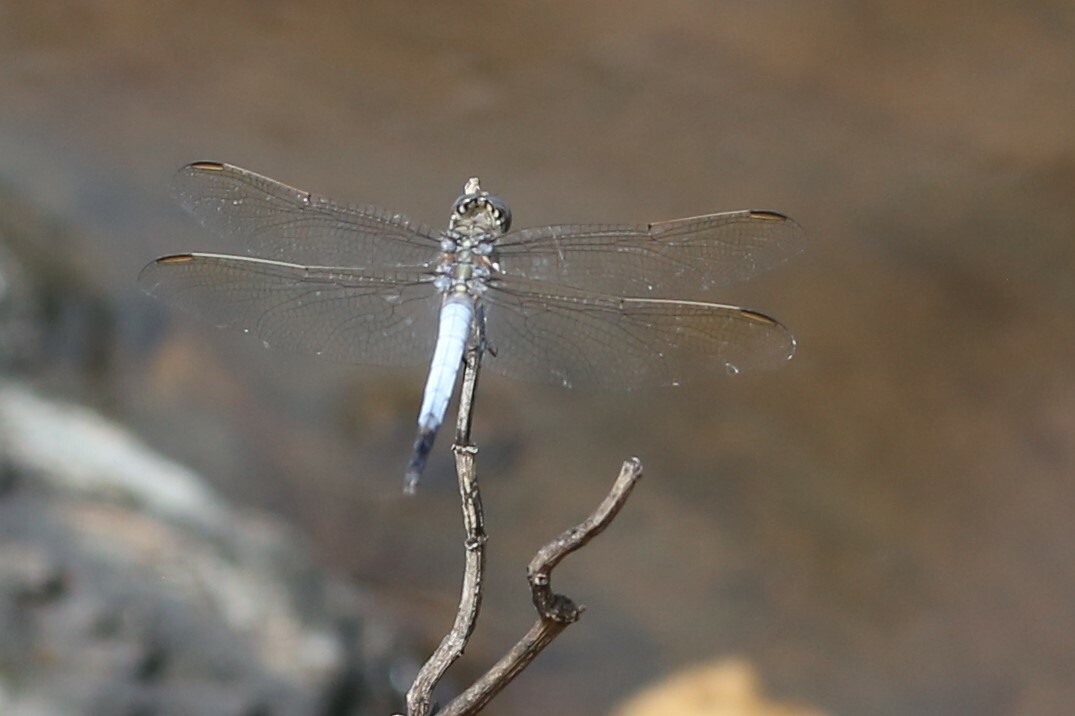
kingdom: Animalia
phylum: Arthropoda
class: Insecta
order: Odonata
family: Libellulidae
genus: Orthetrum
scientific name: Orthetrum caledonicum
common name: Blue skimmer
